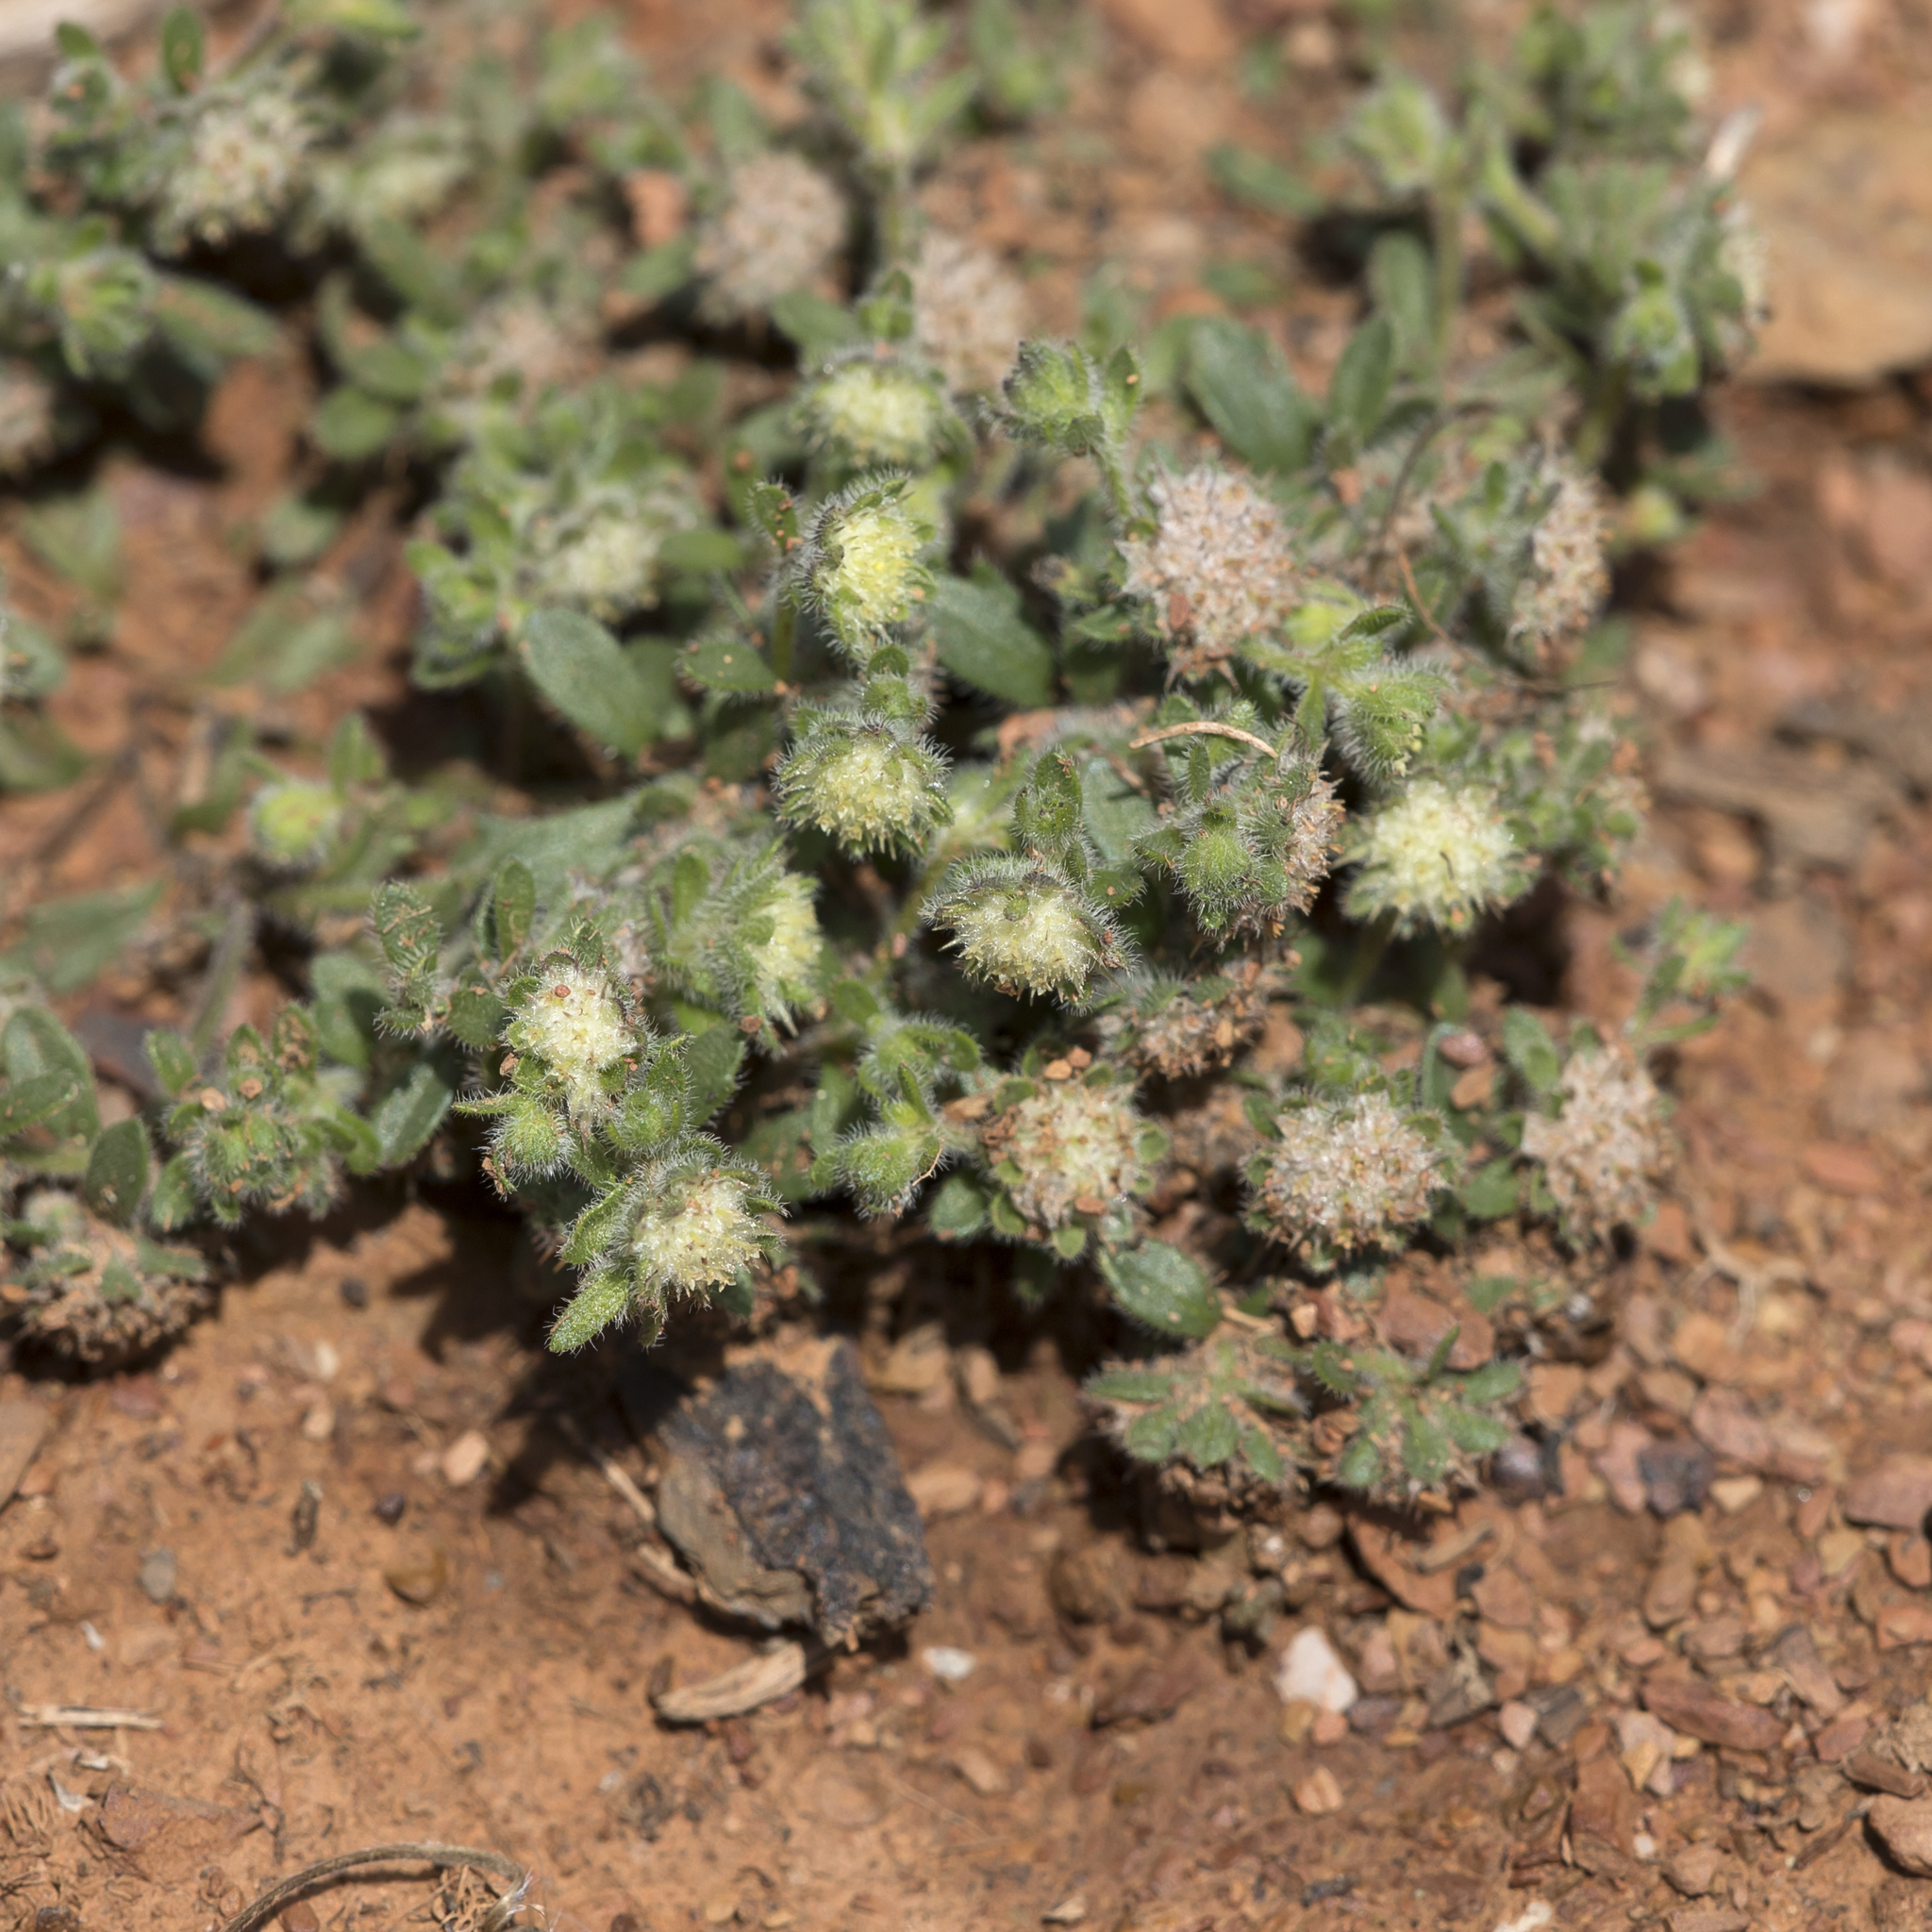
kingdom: Plantae
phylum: Tracheophyta
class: Magnoliopsida
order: Asterales
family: Asteraceae
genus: Calotis
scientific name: Calotis hispidula
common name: Bogan-flea
